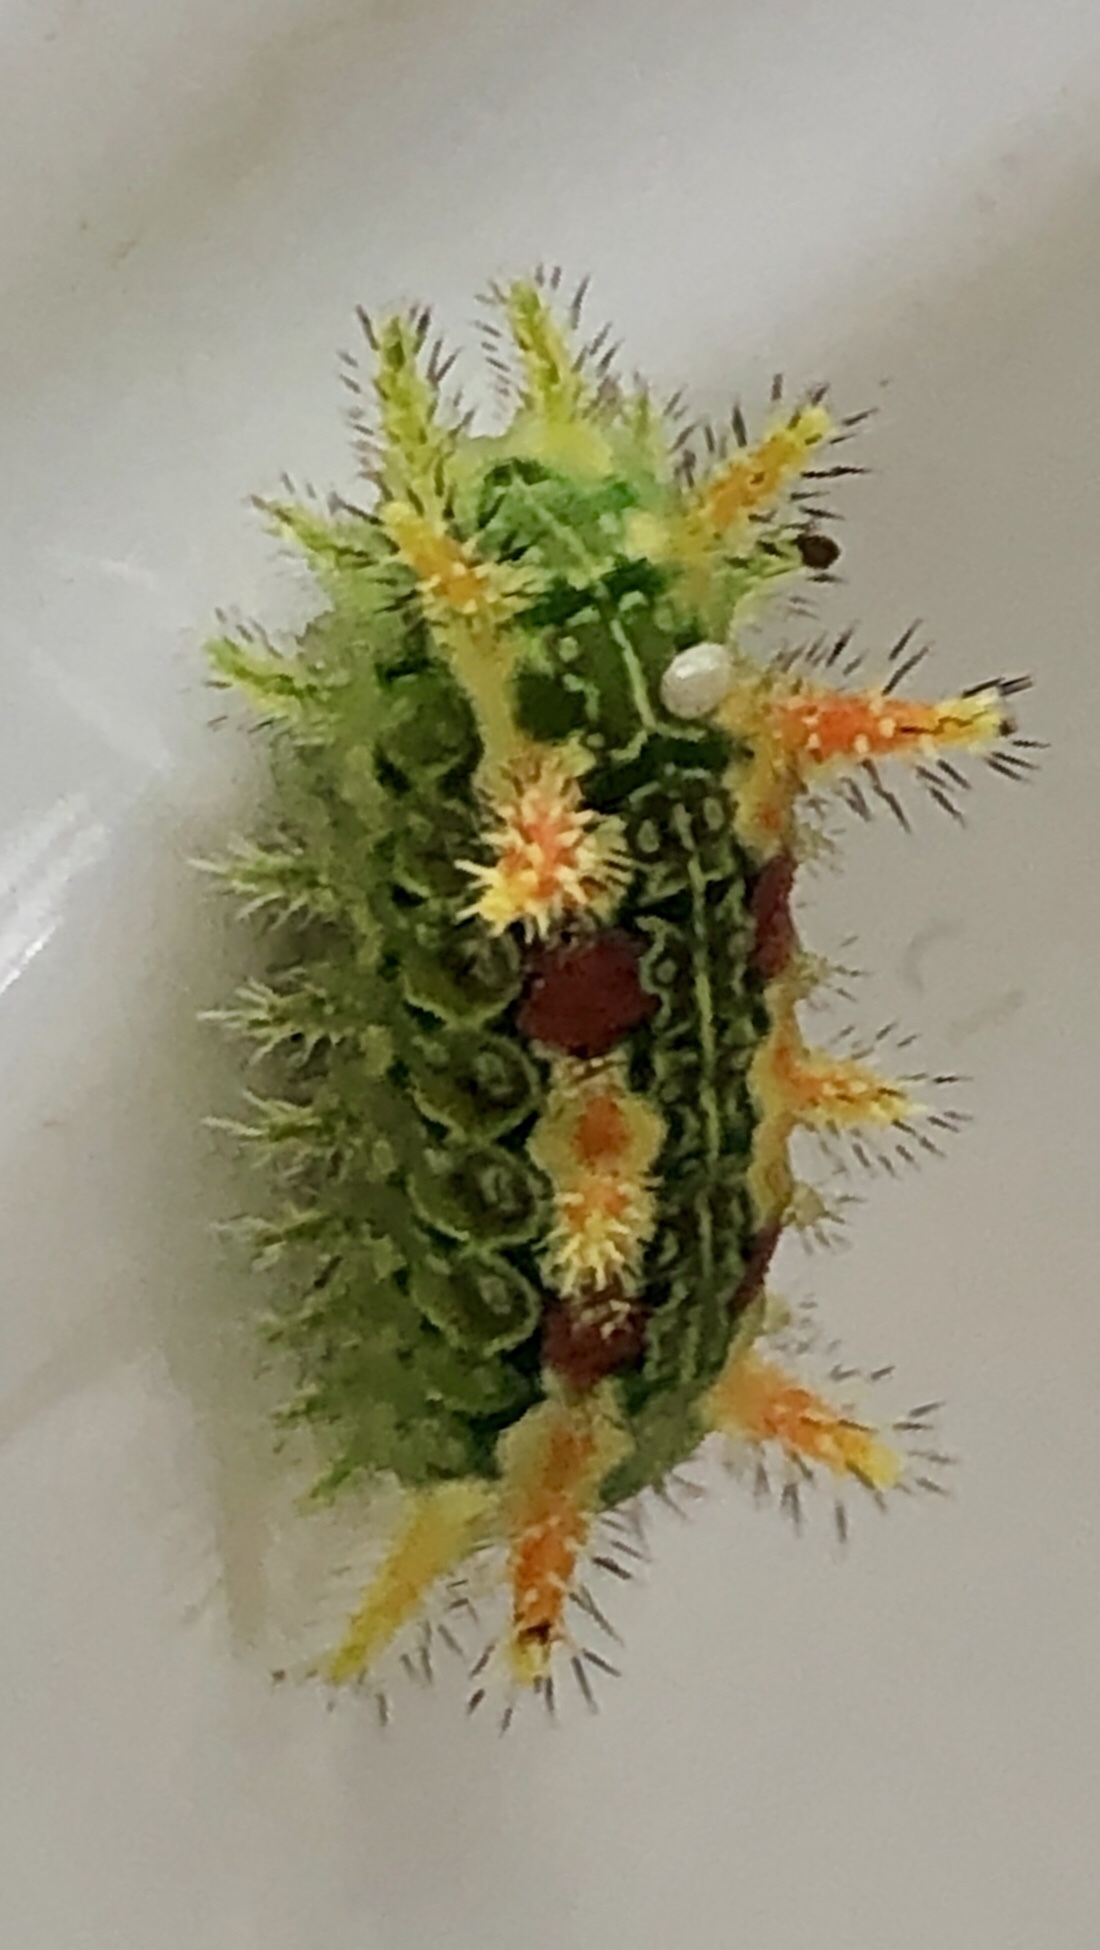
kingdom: Animalia
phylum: Arthropoda
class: Insecta
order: Lepidoptera
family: Limacodidae
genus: Euclea
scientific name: Euclea delphinii
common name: Spiny oak-slug moth
